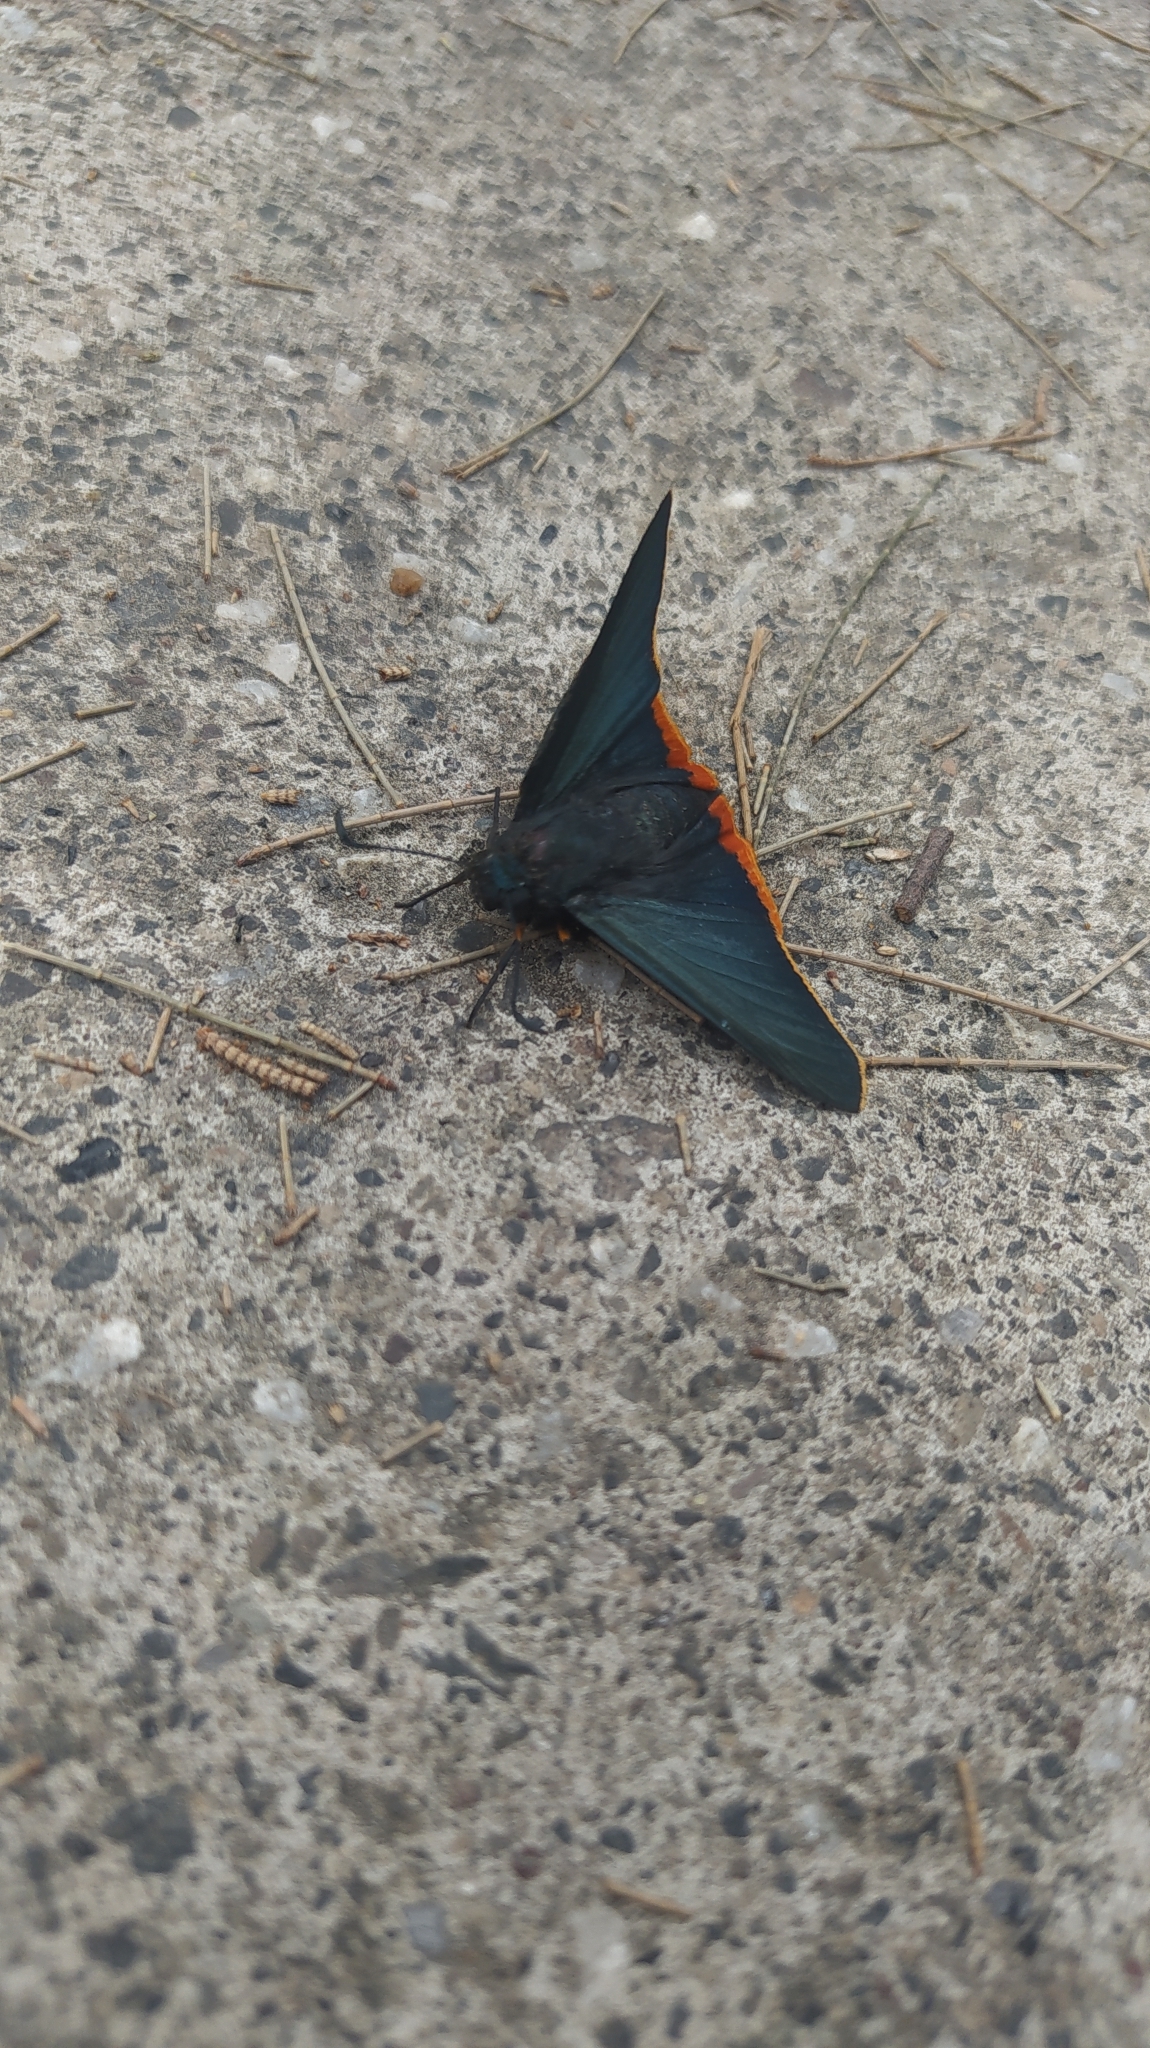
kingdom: Animalia
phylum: Arthropoda
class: Insecta
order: Lepidoptera
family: Hesperiidae
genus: Pyrrhopyge
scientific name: Pyrrhopyge Apyrrothrix chalybea
